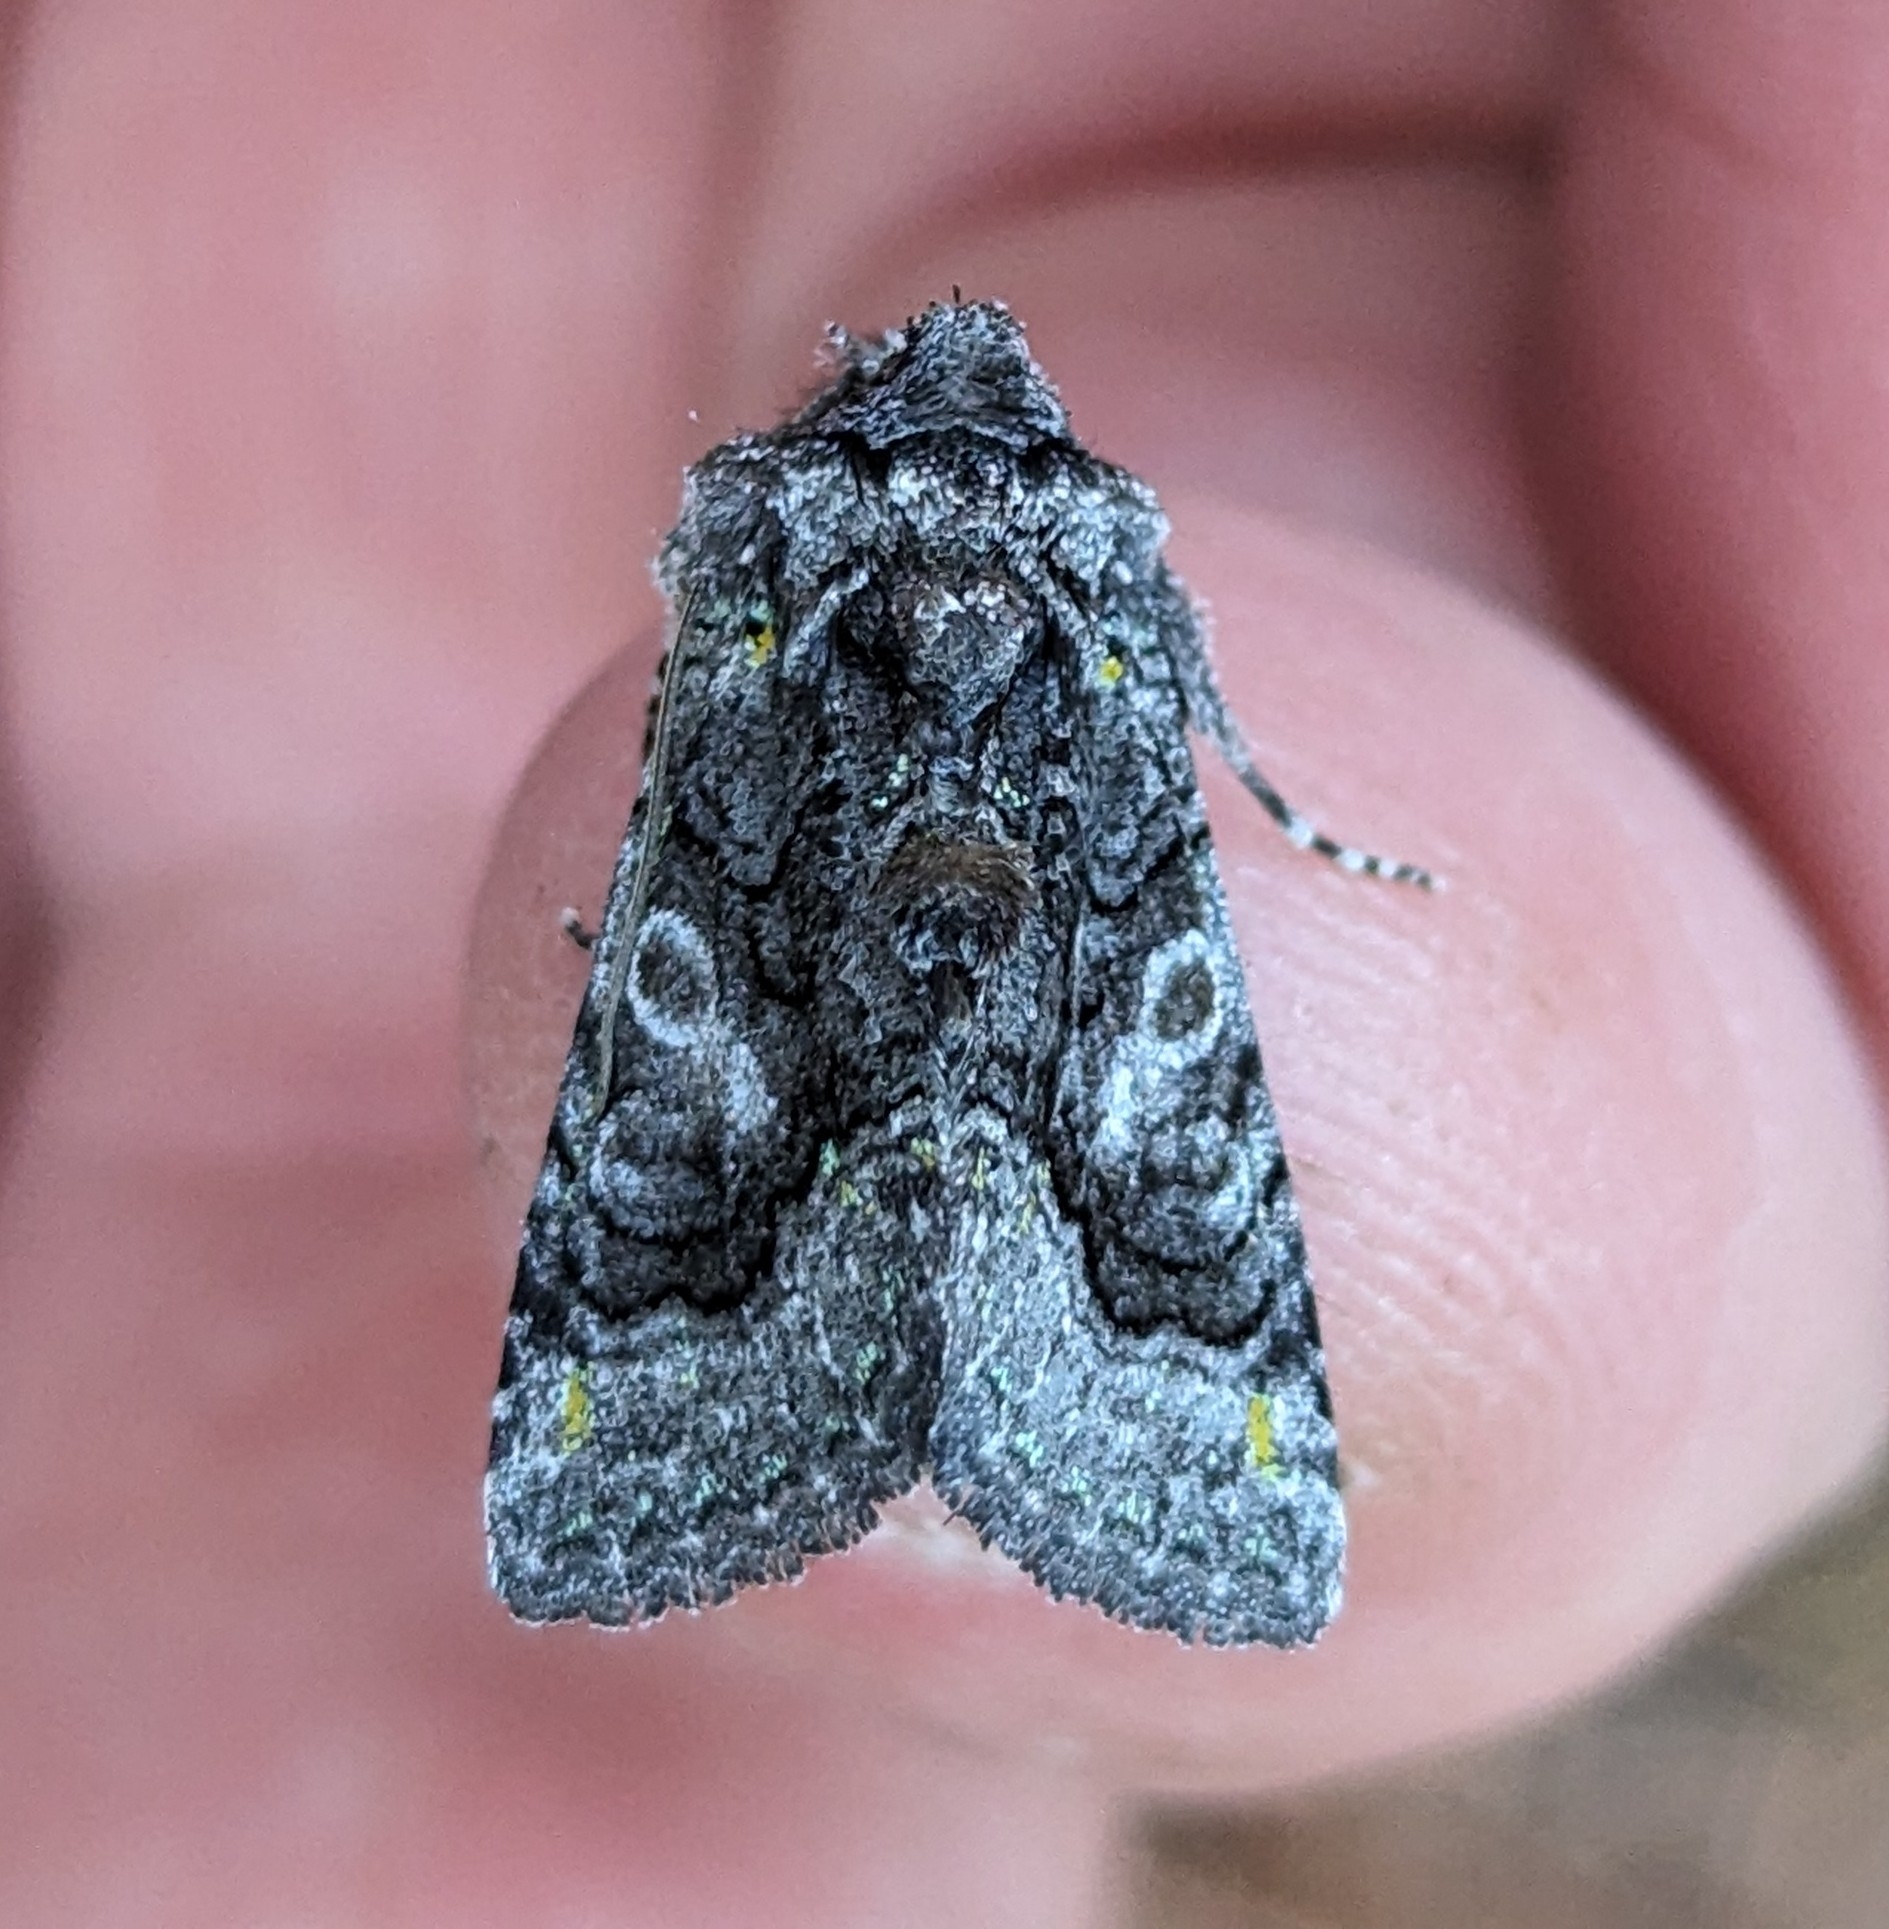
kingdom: Animalia
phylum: Arthropoda
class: Insecta
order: Lepidoptera
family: Noctuidae
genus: Behrensia
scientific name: Behrensia conchiformis
